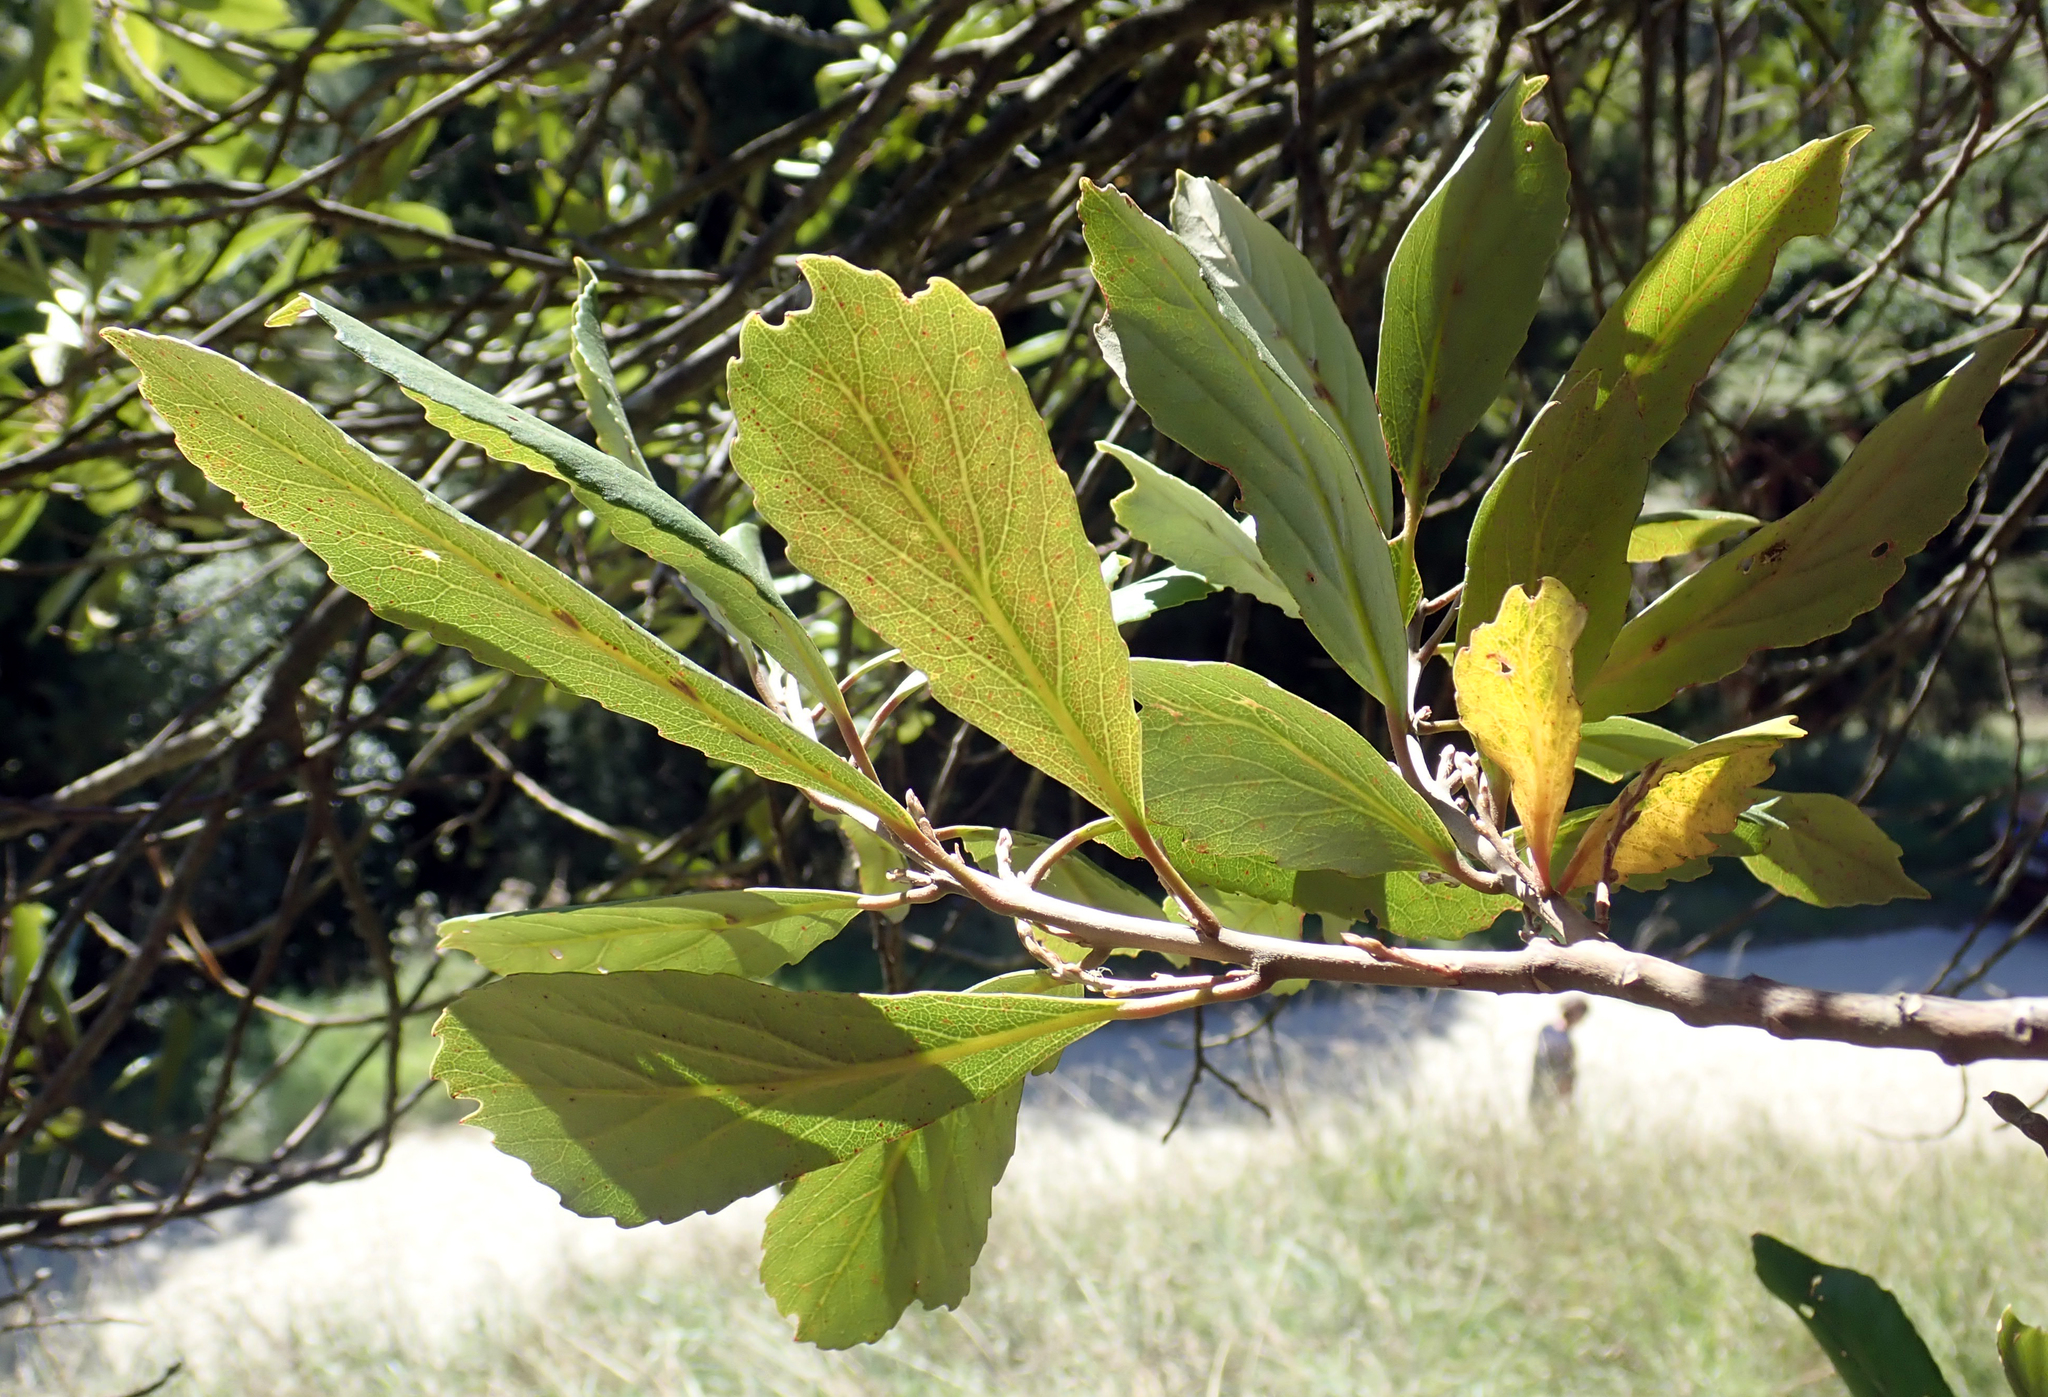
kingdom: Plantae
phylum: Tracheophyta
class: Magnoliopsida
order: Oxalidales
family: Elaeocarpaceae
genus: Elaeocarpus
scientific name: Elaeocarpus dentatus
